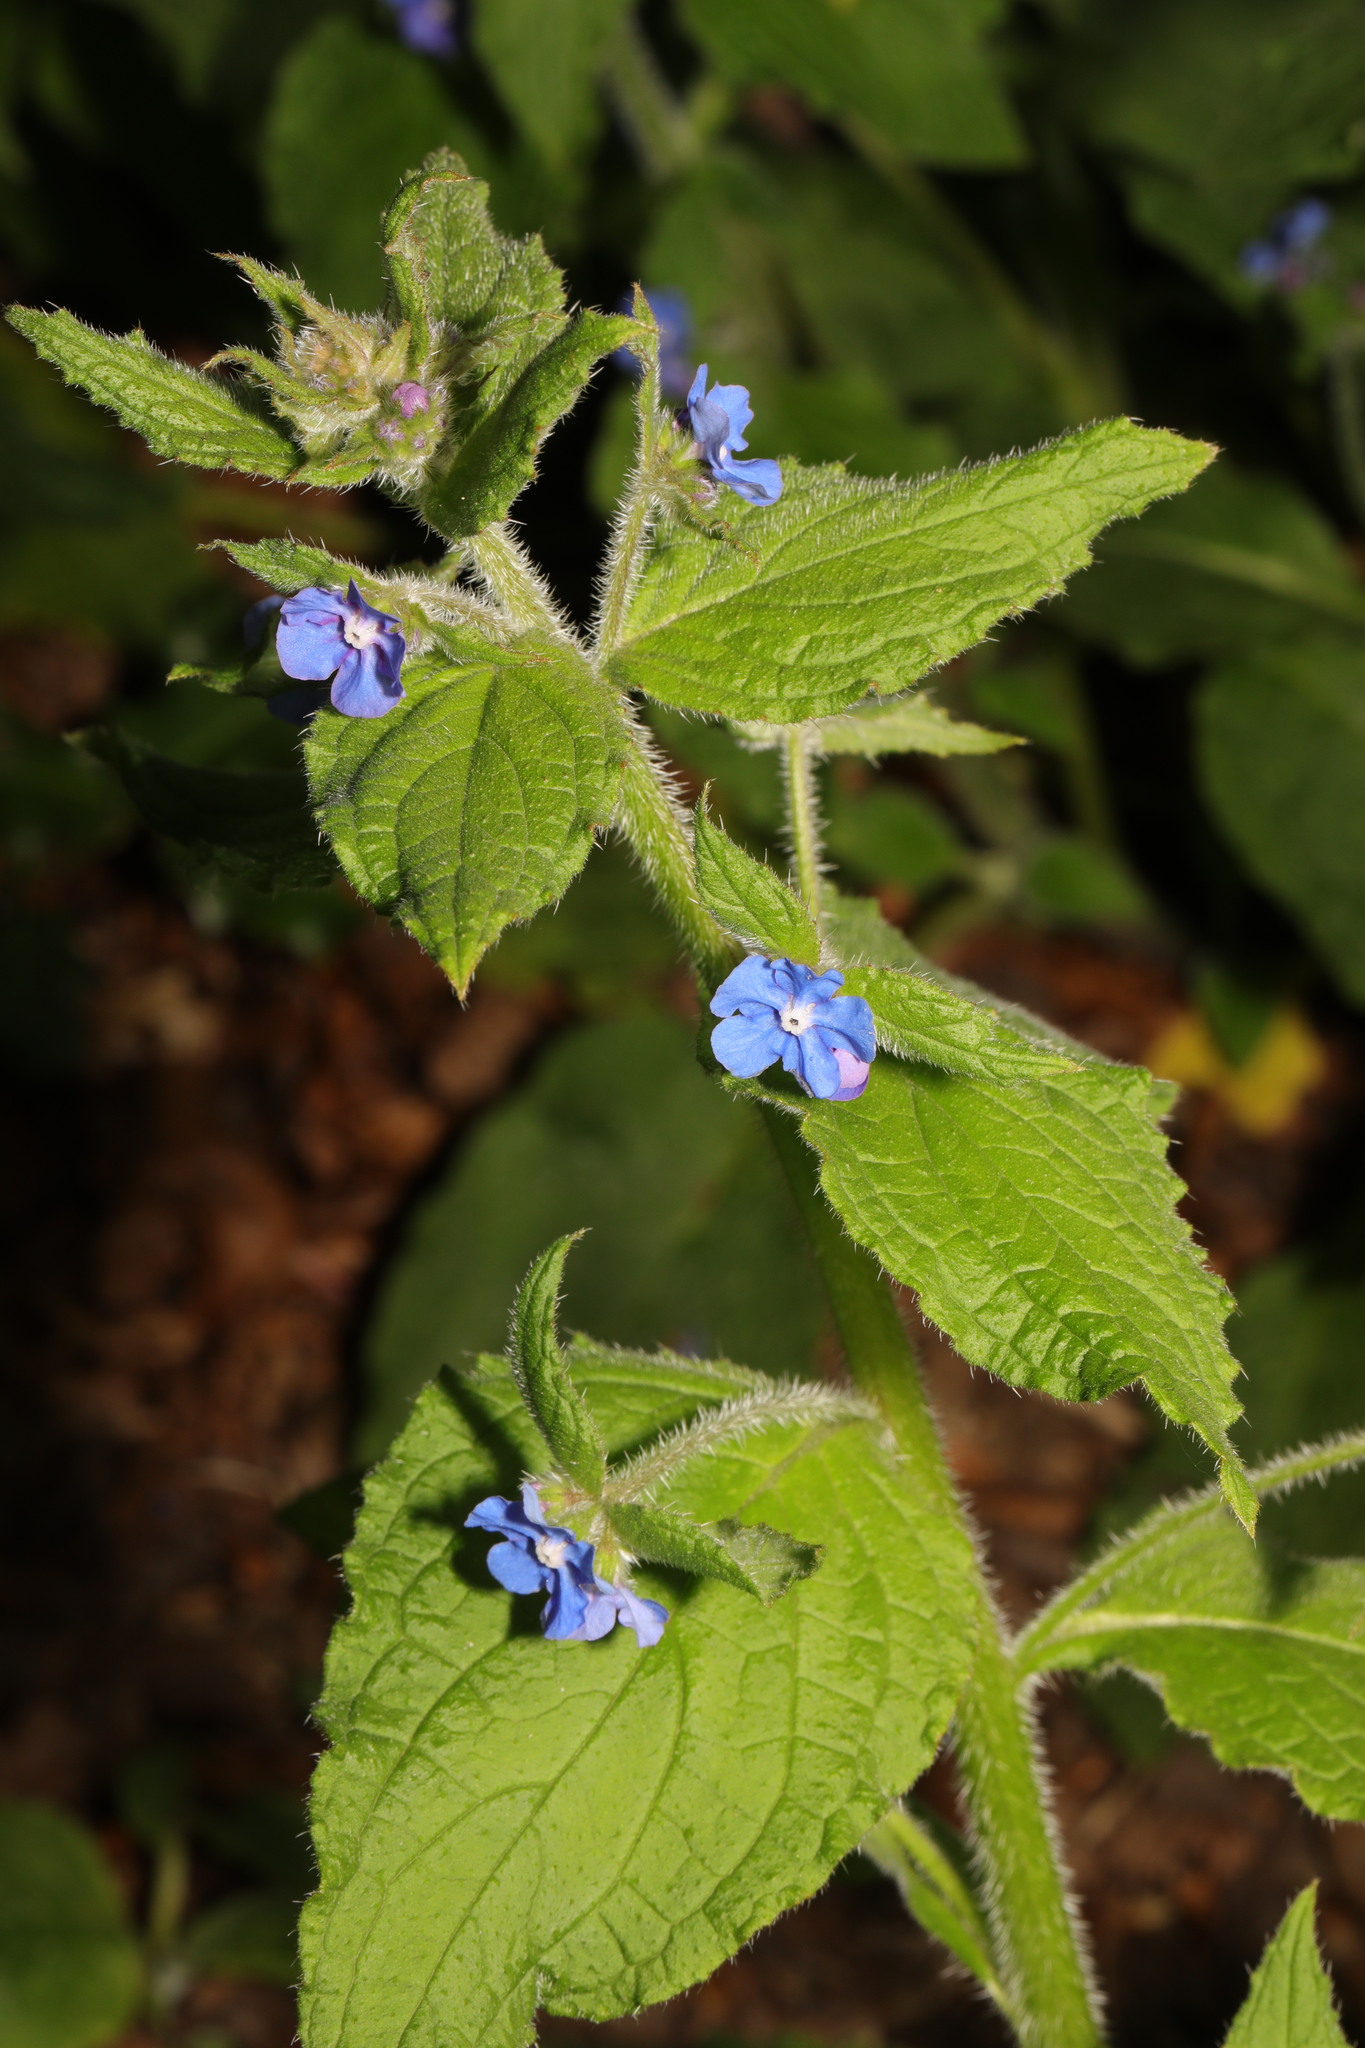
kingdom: Plantae
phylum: Tracheophyta
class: Magnoliopsida
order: Boraginales
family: Boraginaceae
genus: Pentaglottis
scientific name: Pentaglottis sempervirens
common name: Green alkanet
